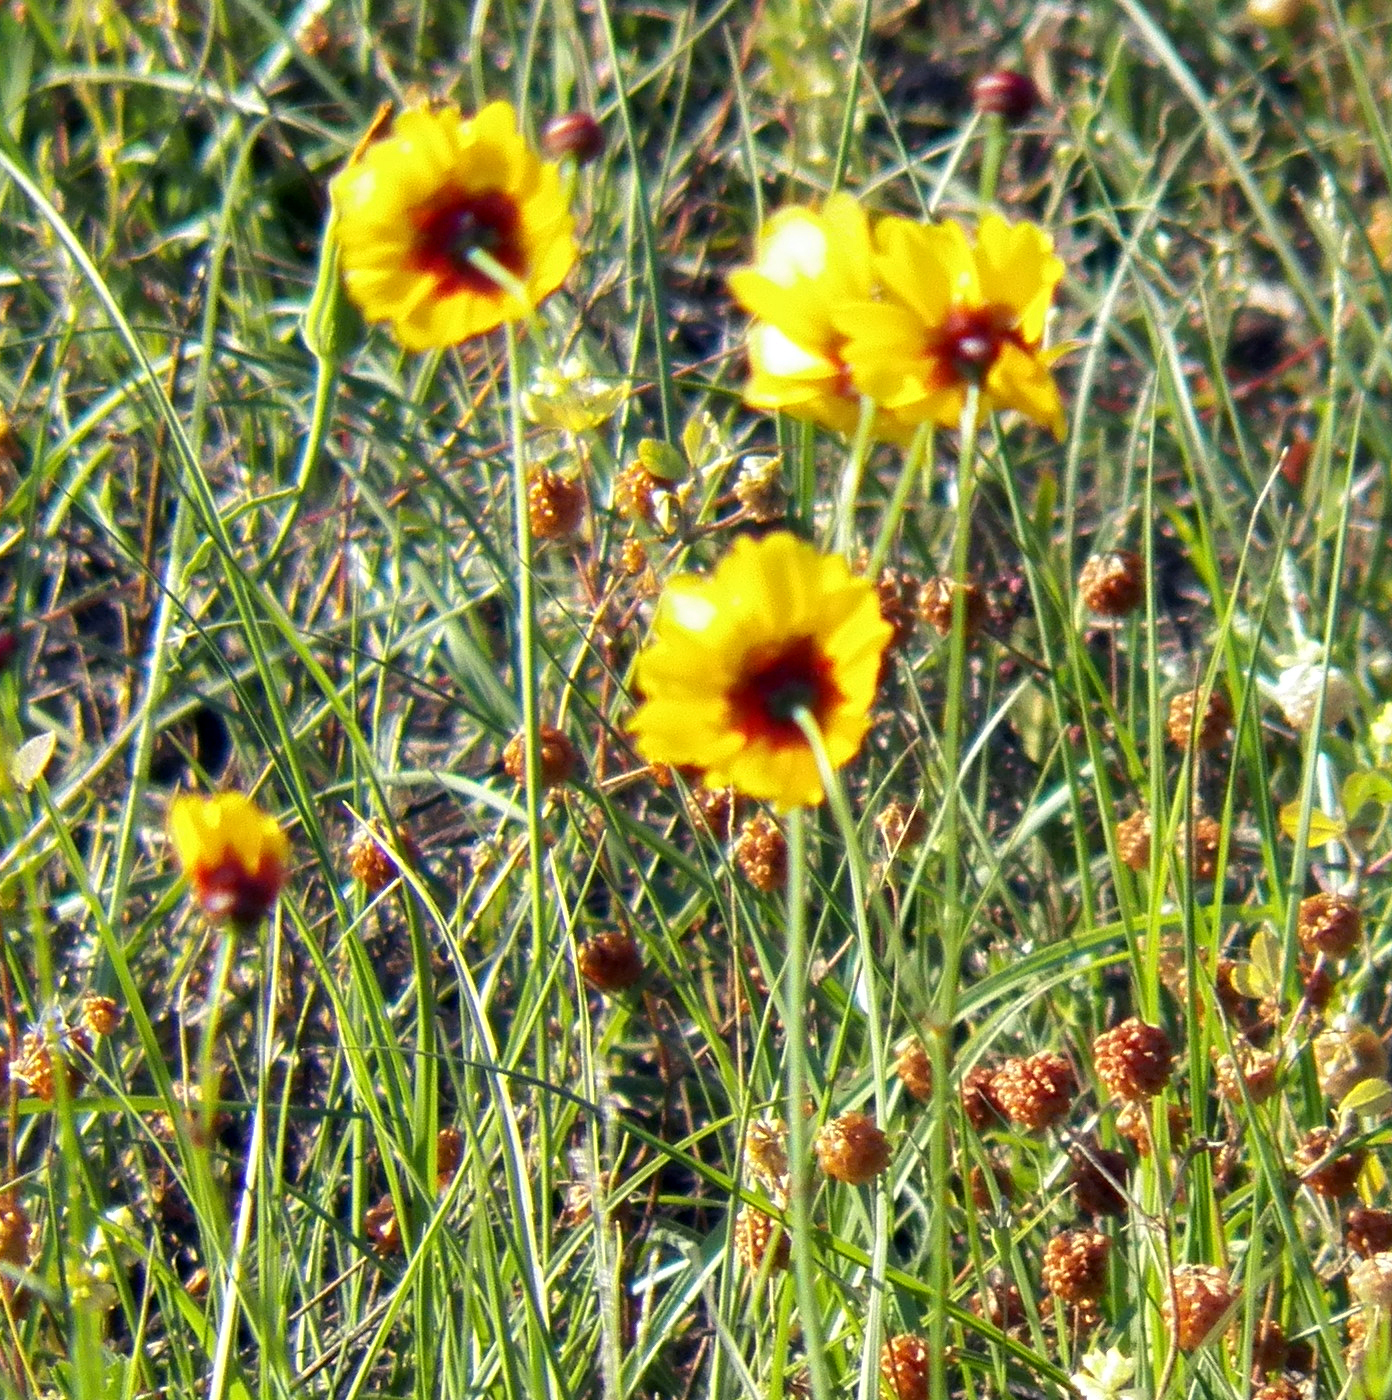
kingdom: Plantae
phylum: Tracheophyta
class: Magnoliopsida
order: Asterales
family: Asteraceae
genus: Coreopsis
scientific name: Coreopsis tinctoria
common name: Garden tickseed
